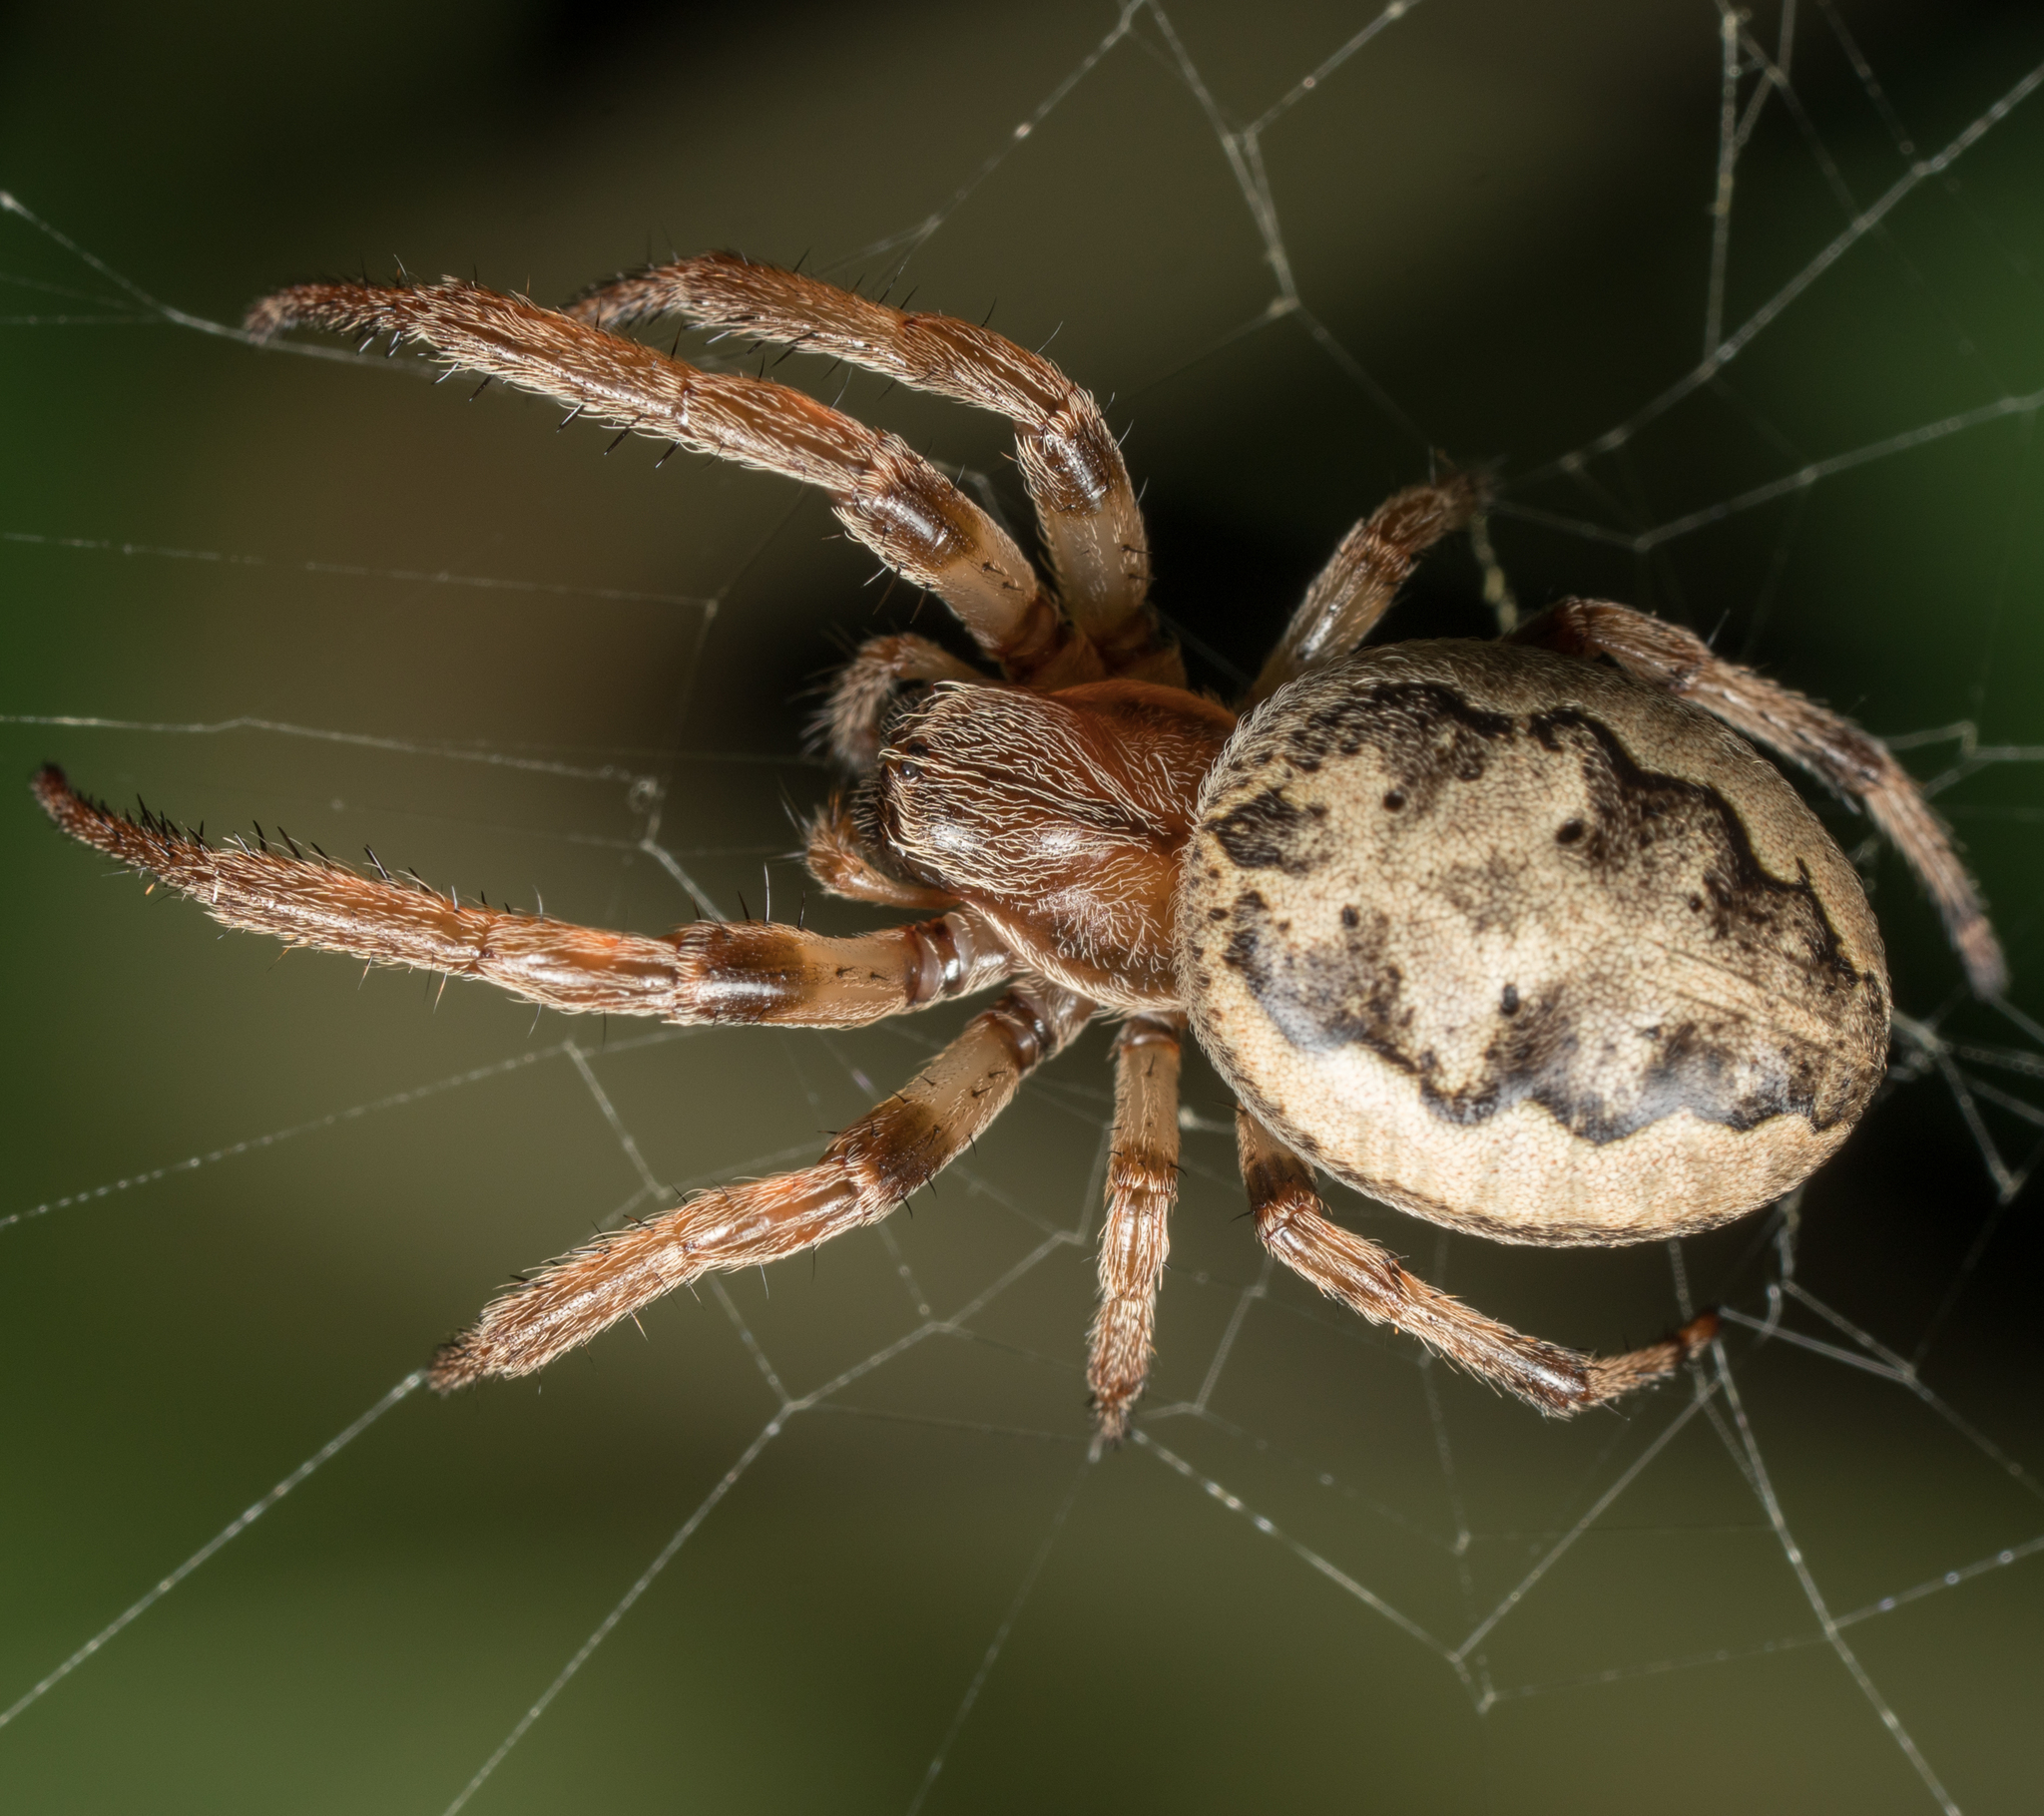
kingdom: Animalia
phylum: Arthropoda
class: Arachnida
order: Araneae
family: Araneidae
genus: Larinioides
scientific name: Larinioides cornutus
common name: Furrow orbweaver
